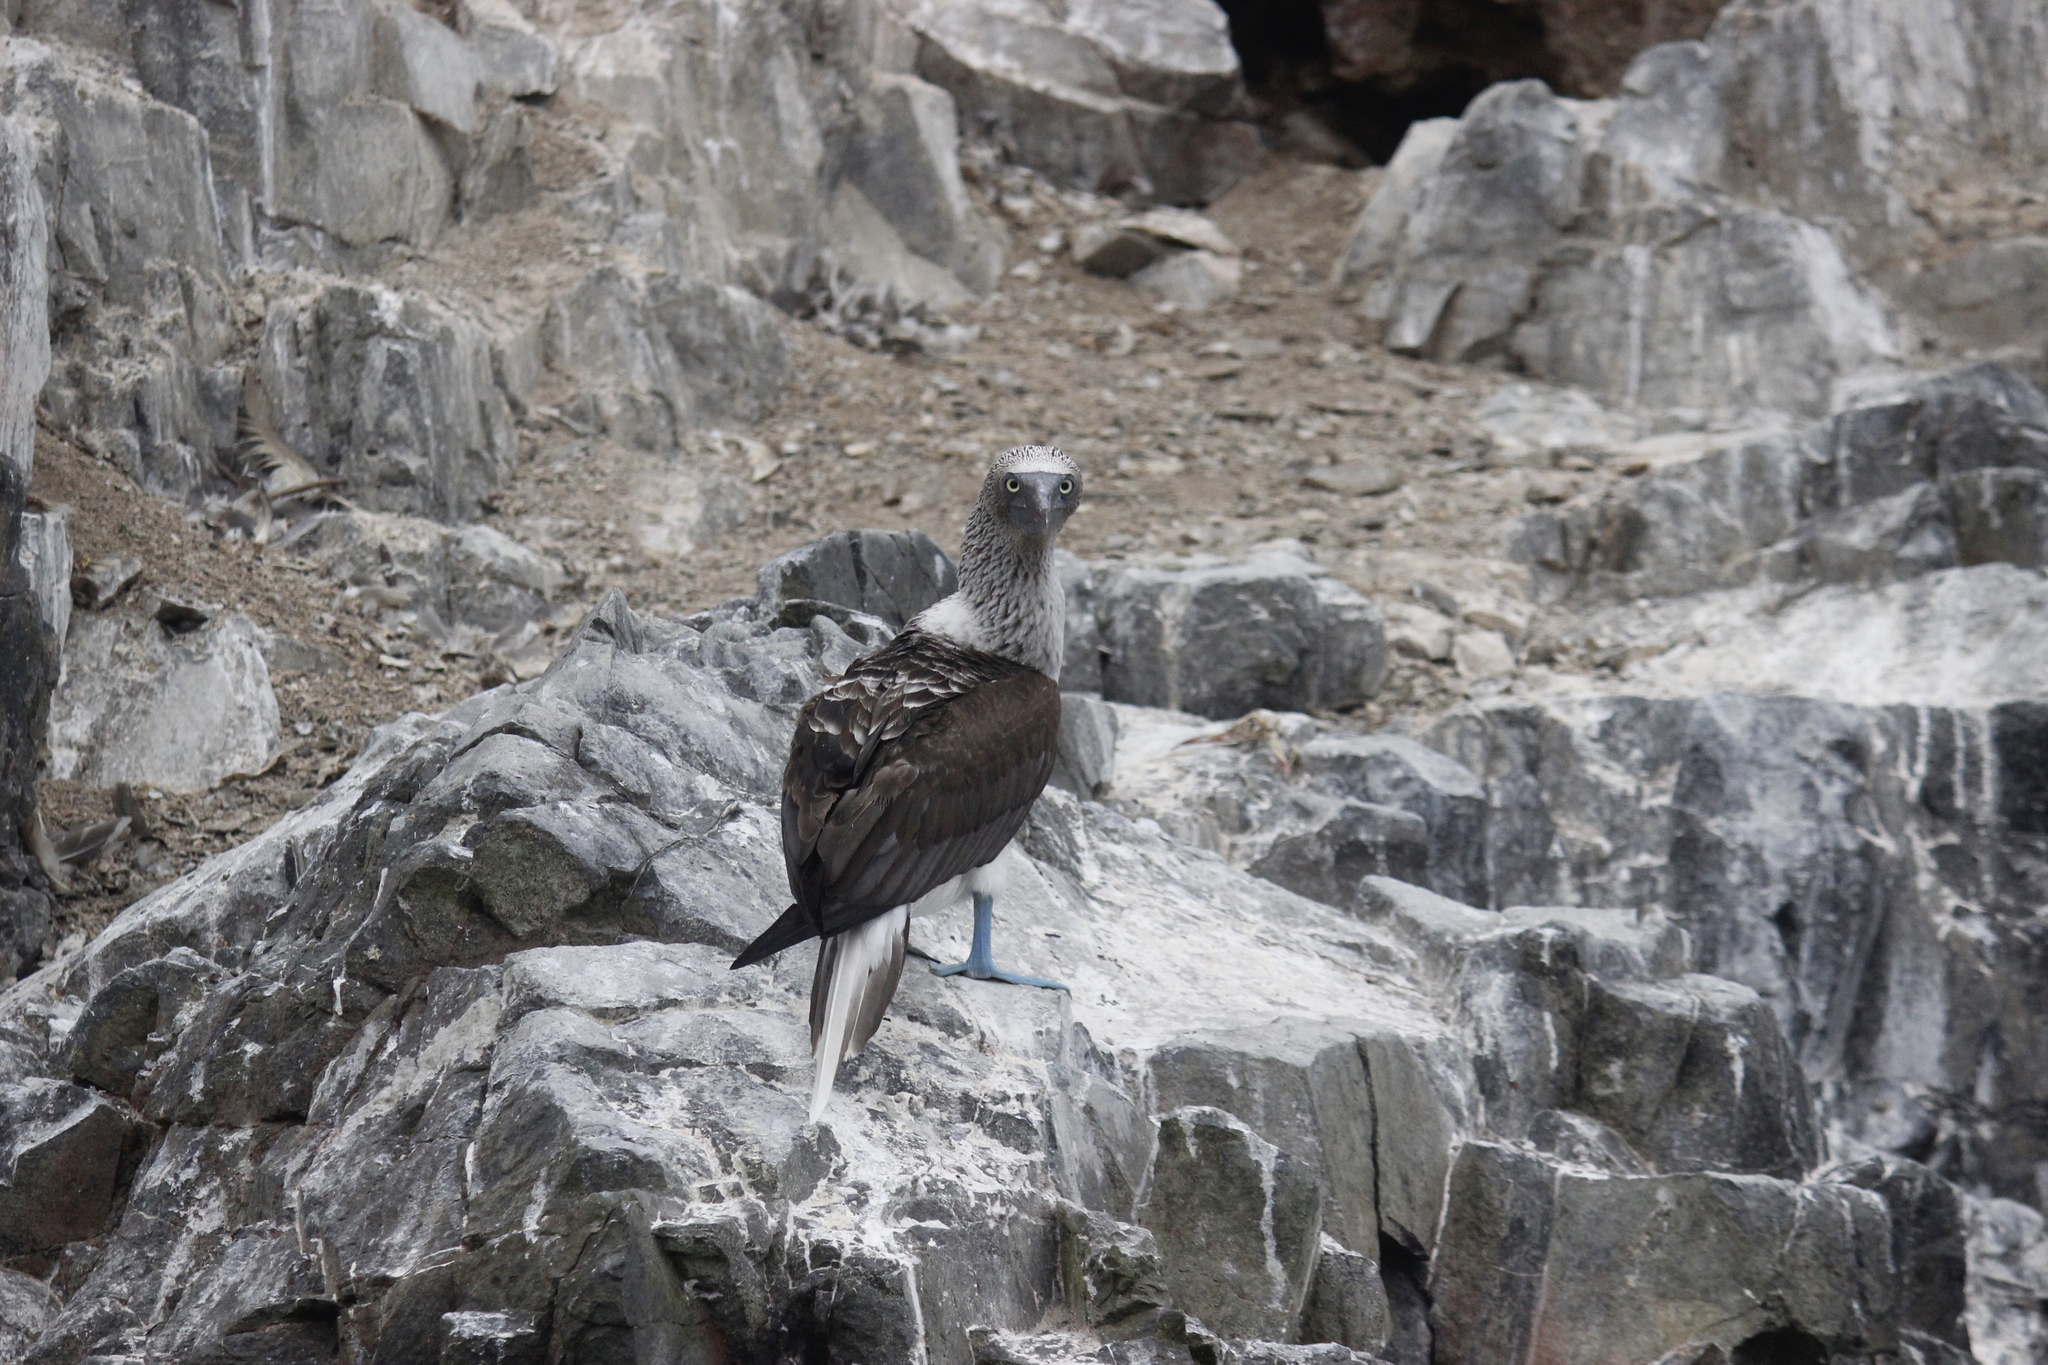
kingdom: Animalia
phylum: Chordata
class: Aves
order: Suliformes
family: Sulidae
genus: Sula
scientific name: Sula nebouxii
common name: Blue-footed booby
